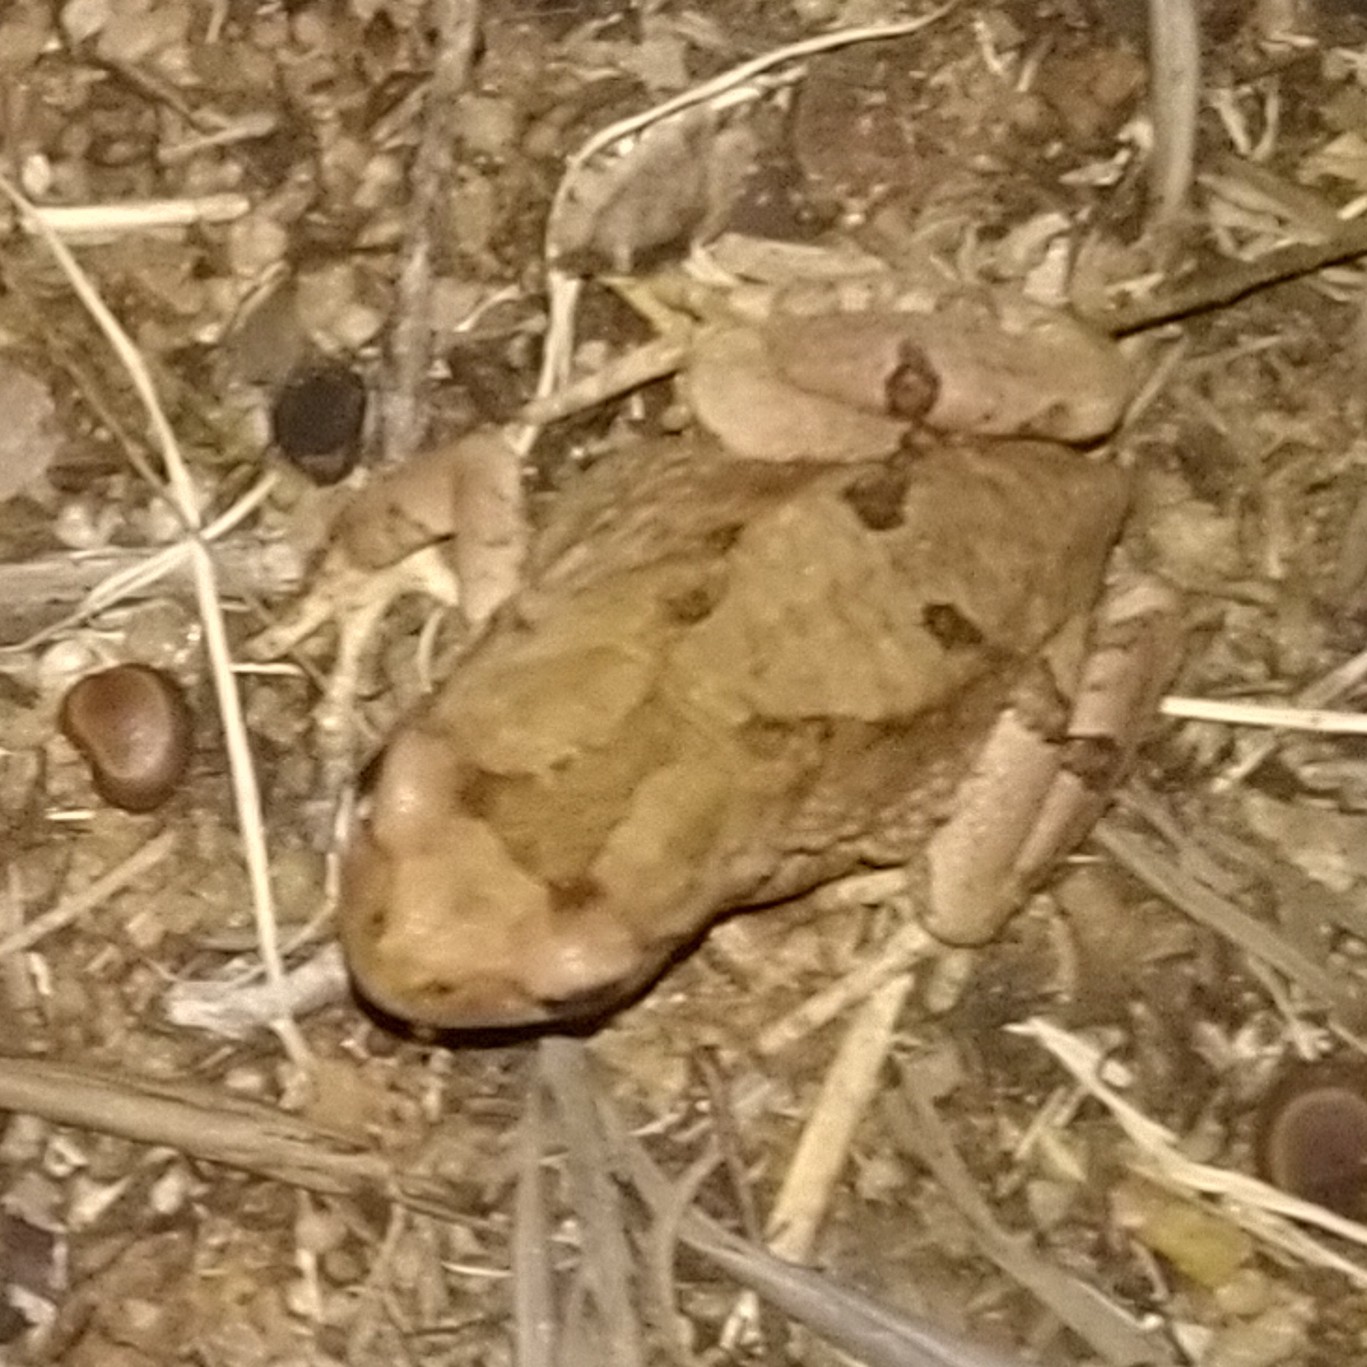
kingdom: Animalia
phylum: Chordata
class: Amphibia
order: Anura
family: Bufonidae
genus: Schismaderma
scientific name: Schismaderma carens
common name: African split-skin toad
